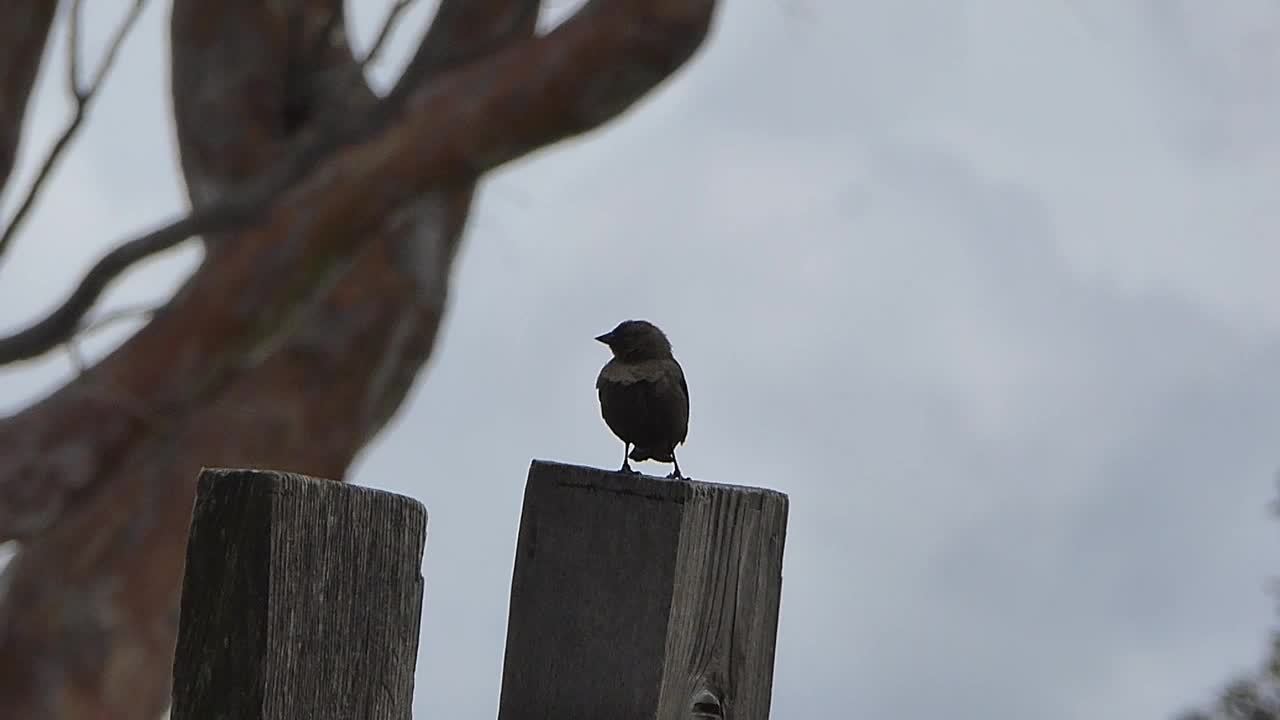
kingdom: Animalia
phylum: Chordata
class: Aves
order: Passeriformes
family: Icteridae
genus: Molothrus
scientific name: Molothrus ater
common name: Brown-headed cowbird
